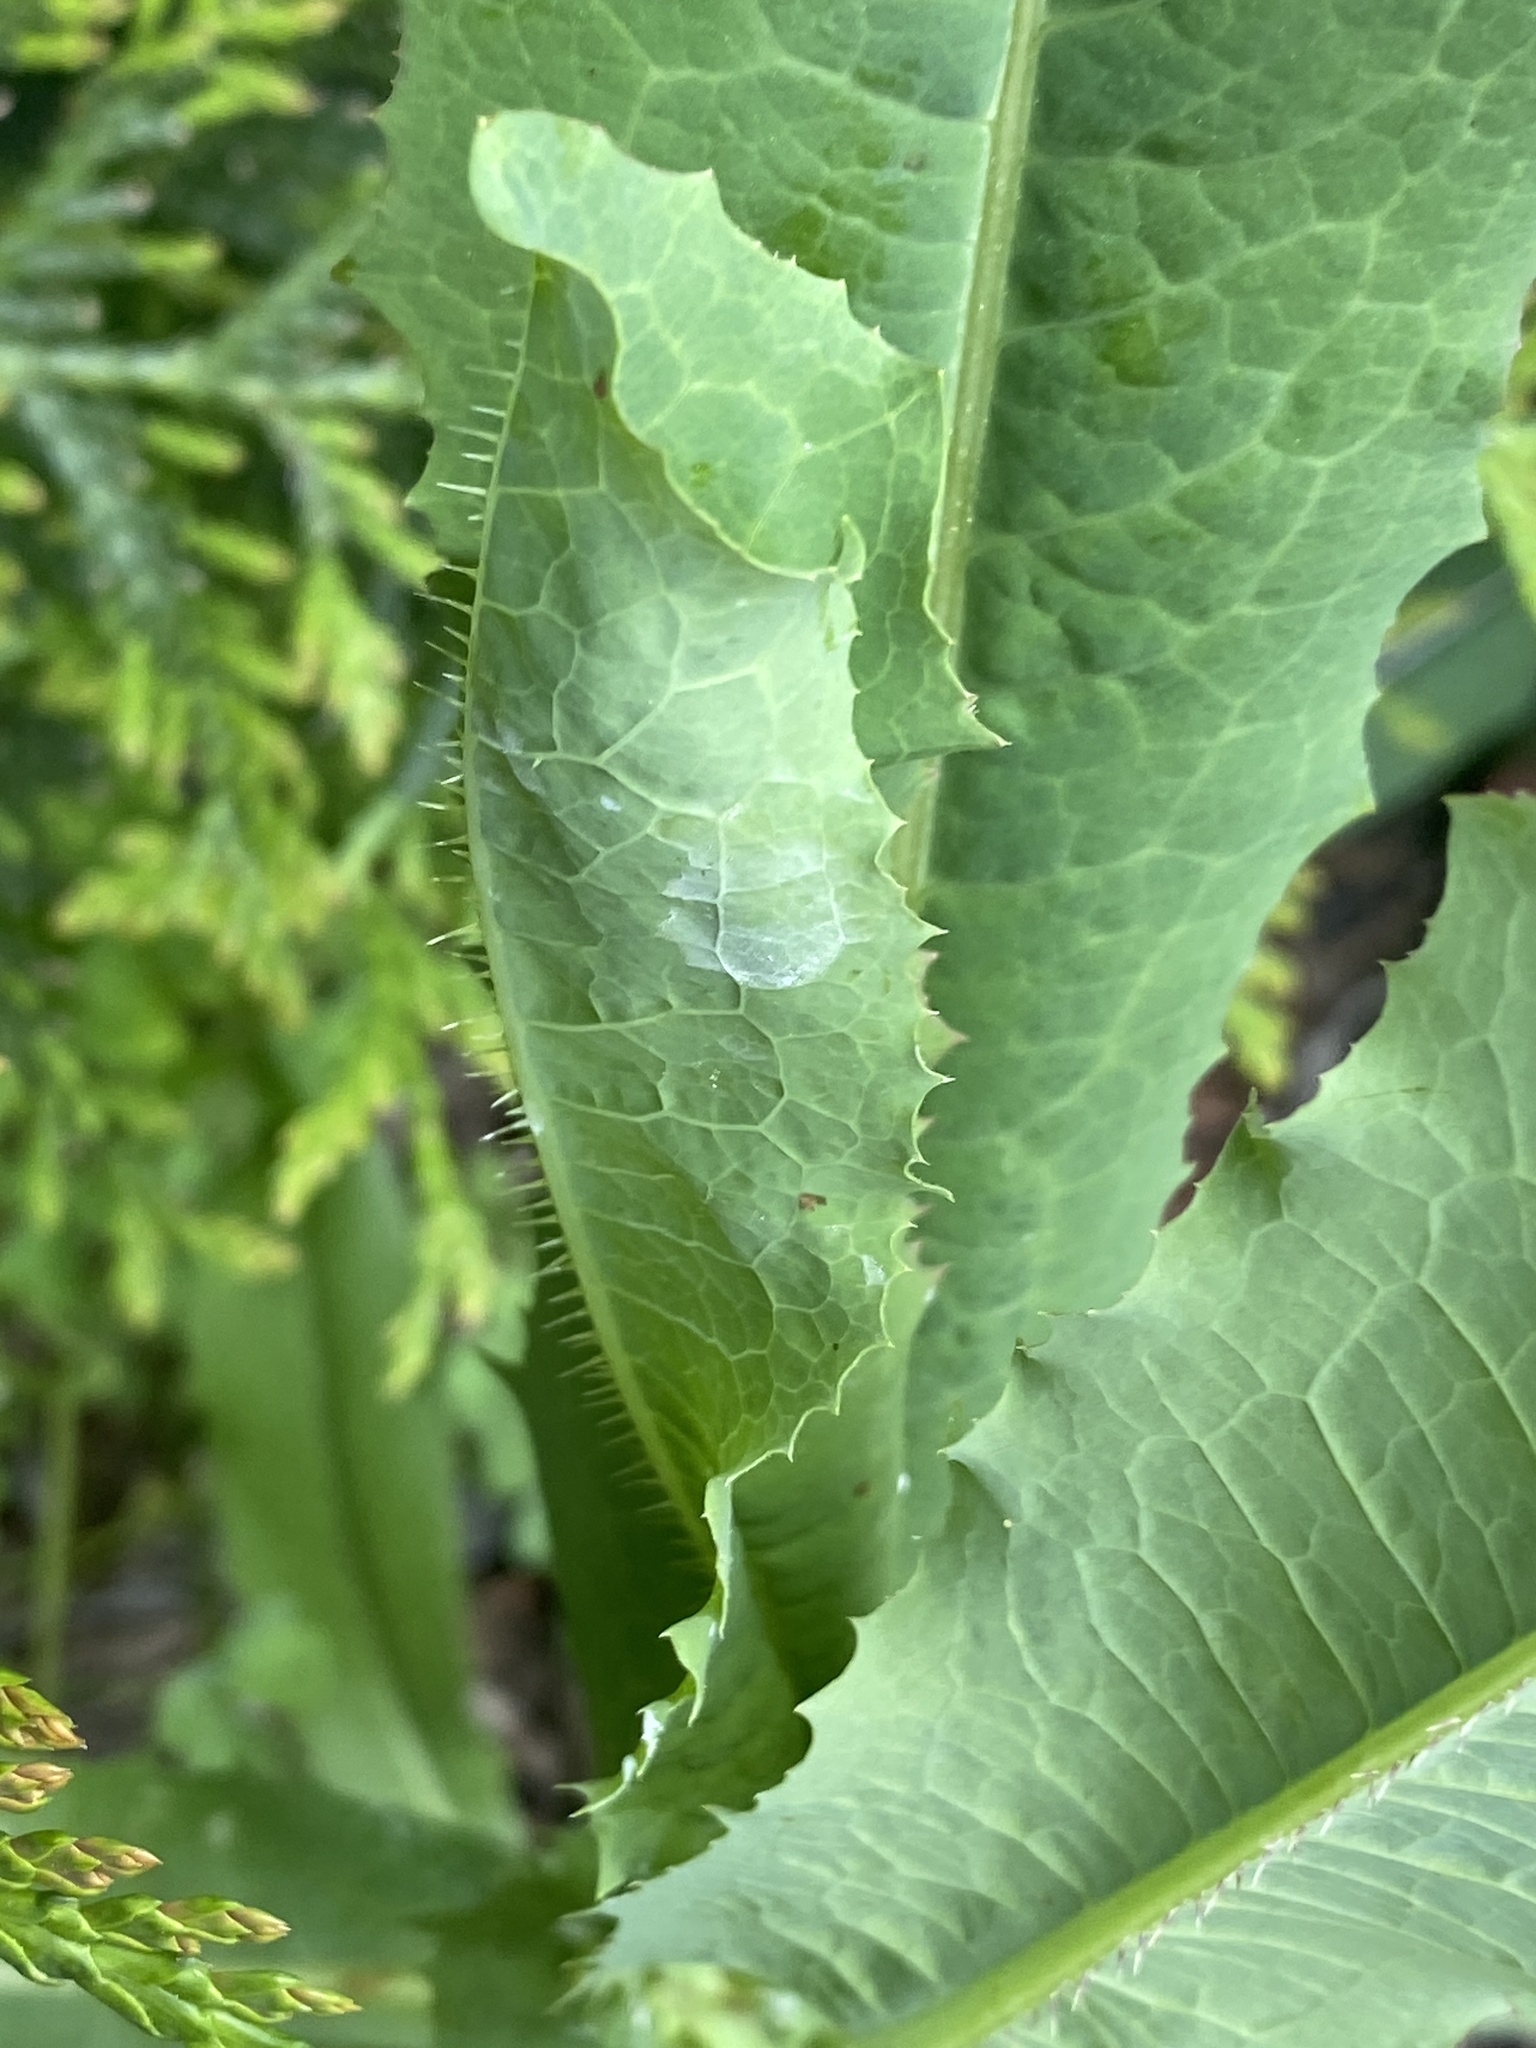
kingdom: Plantae
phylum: Tracheophyta
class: Magnoliopsida
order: Asterales
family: Asteraceae
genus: Lactuca
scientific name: Lactuca serriola
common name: Prickly lettuce
